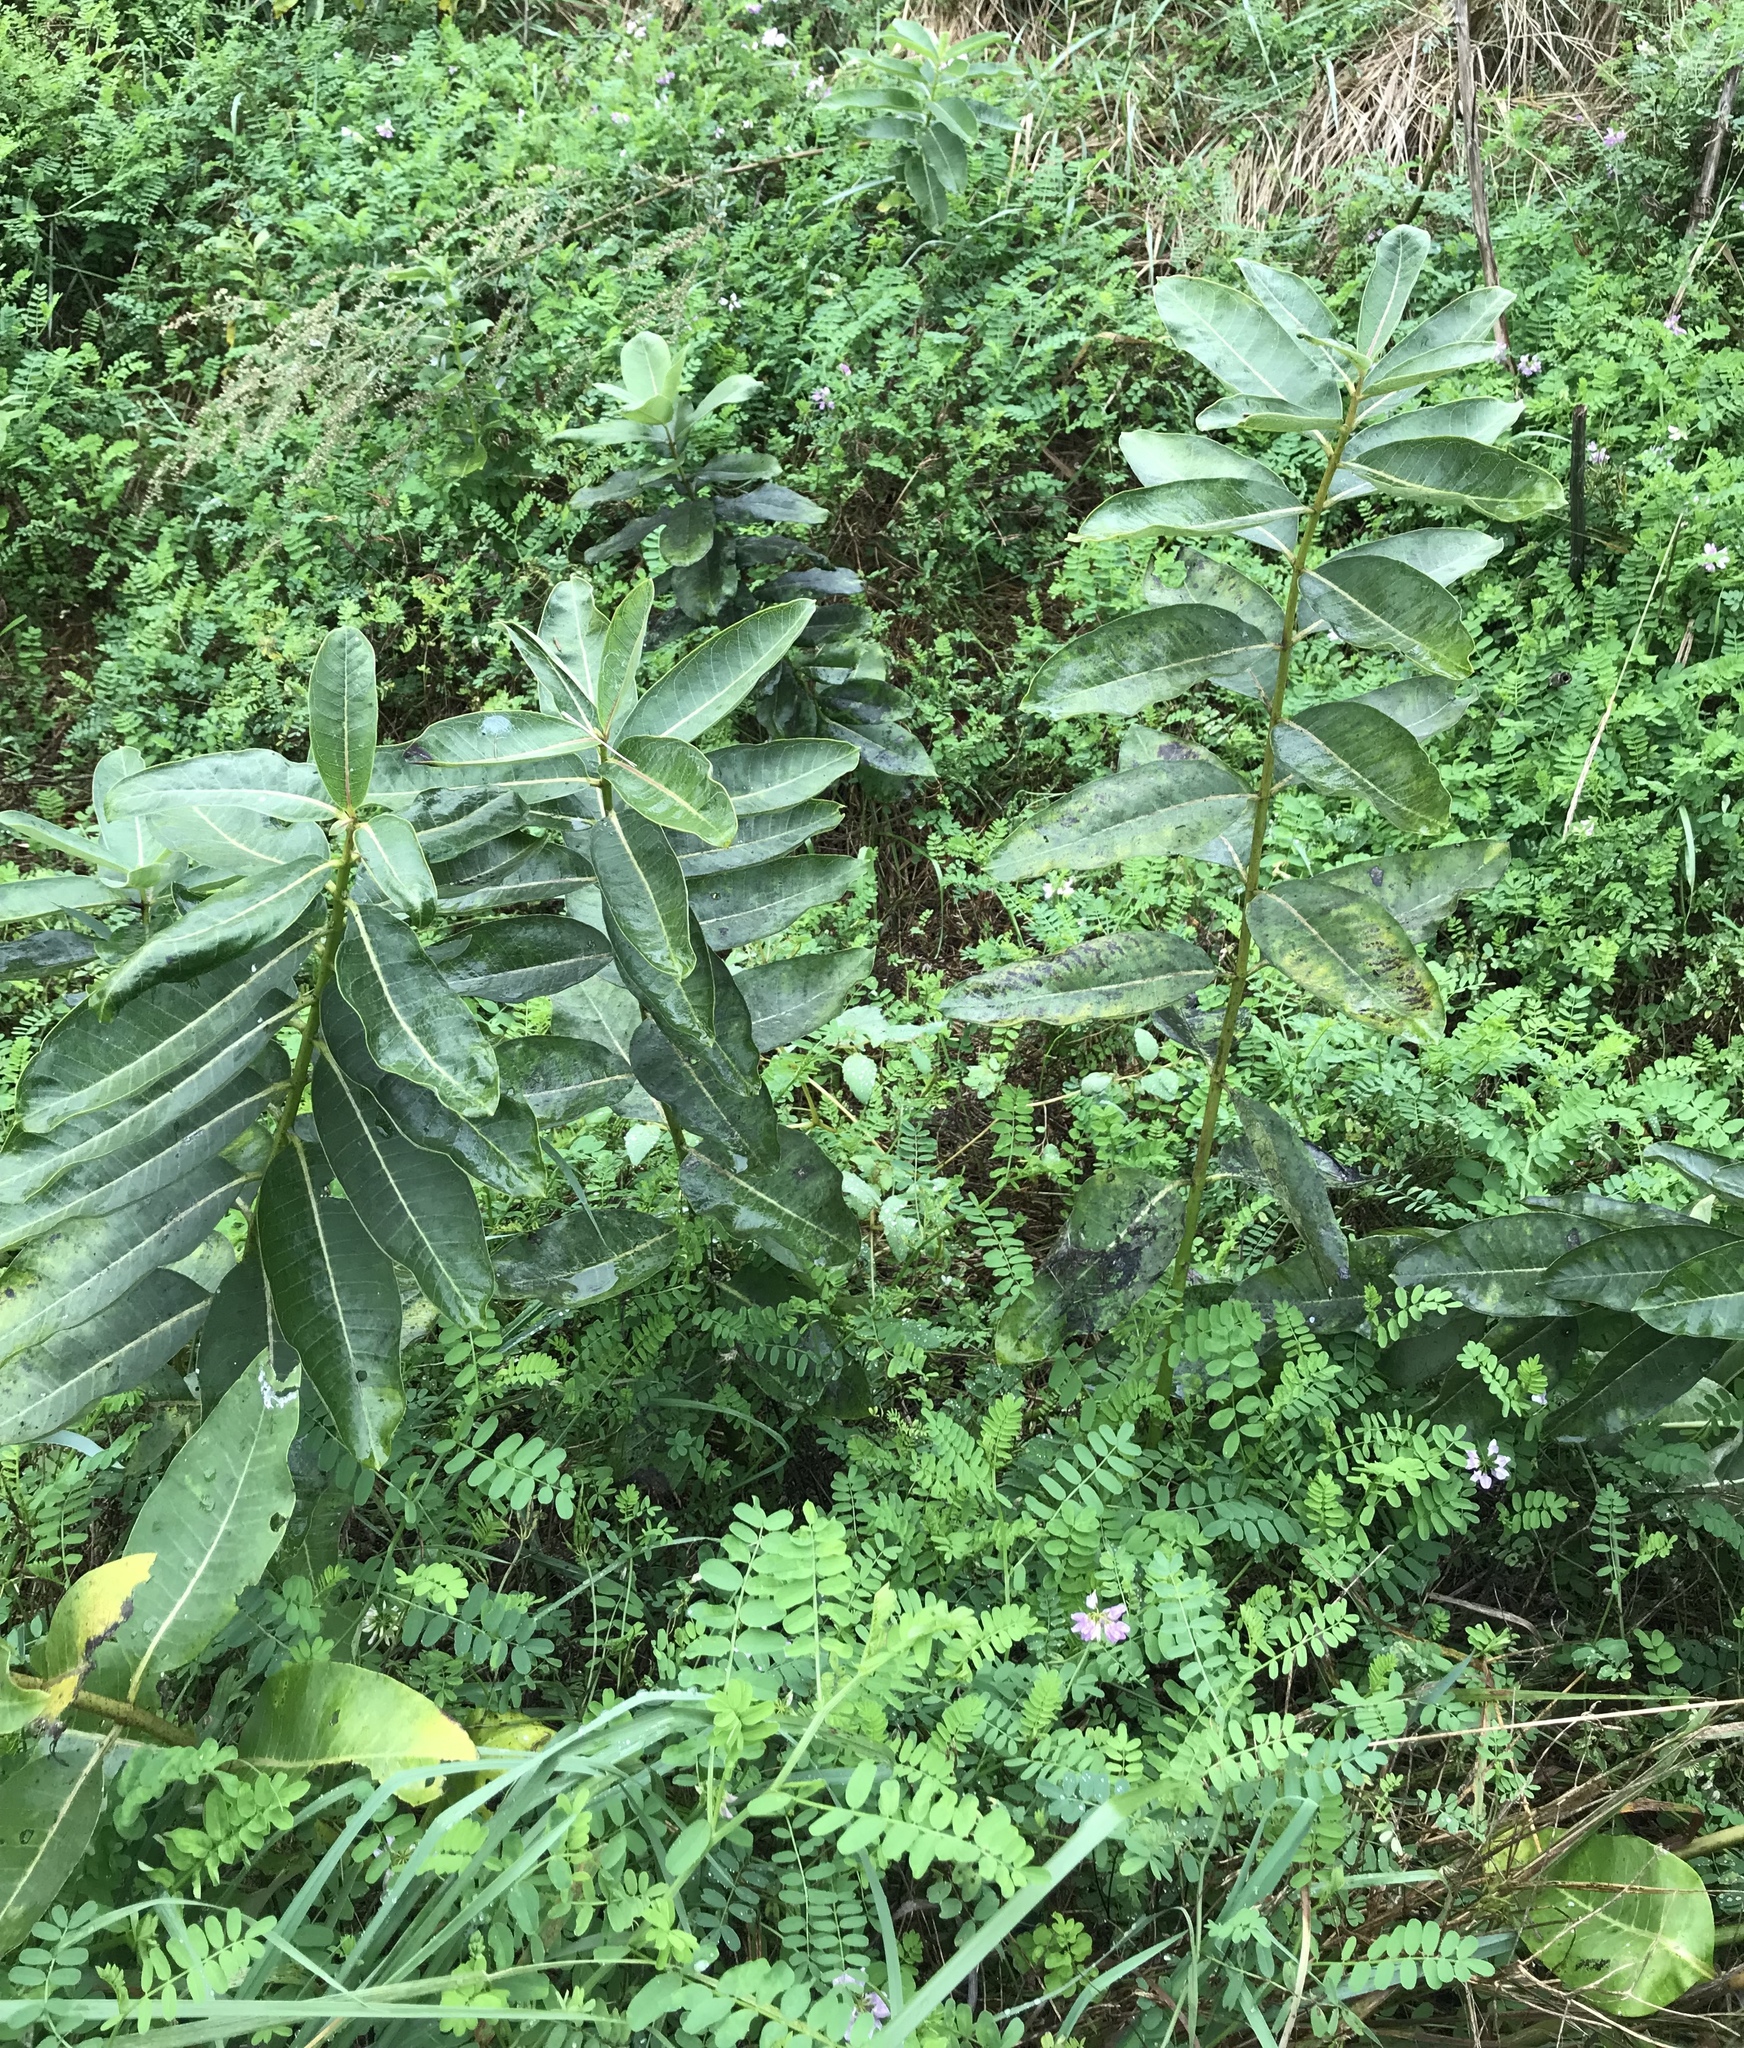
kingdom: Plantae
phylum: Tracheophyta
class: Magnoliopsida
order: Gentianales
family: Apocynaceae
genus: Asclepias
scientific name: Asclepias syriaca
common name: Common milkweed
